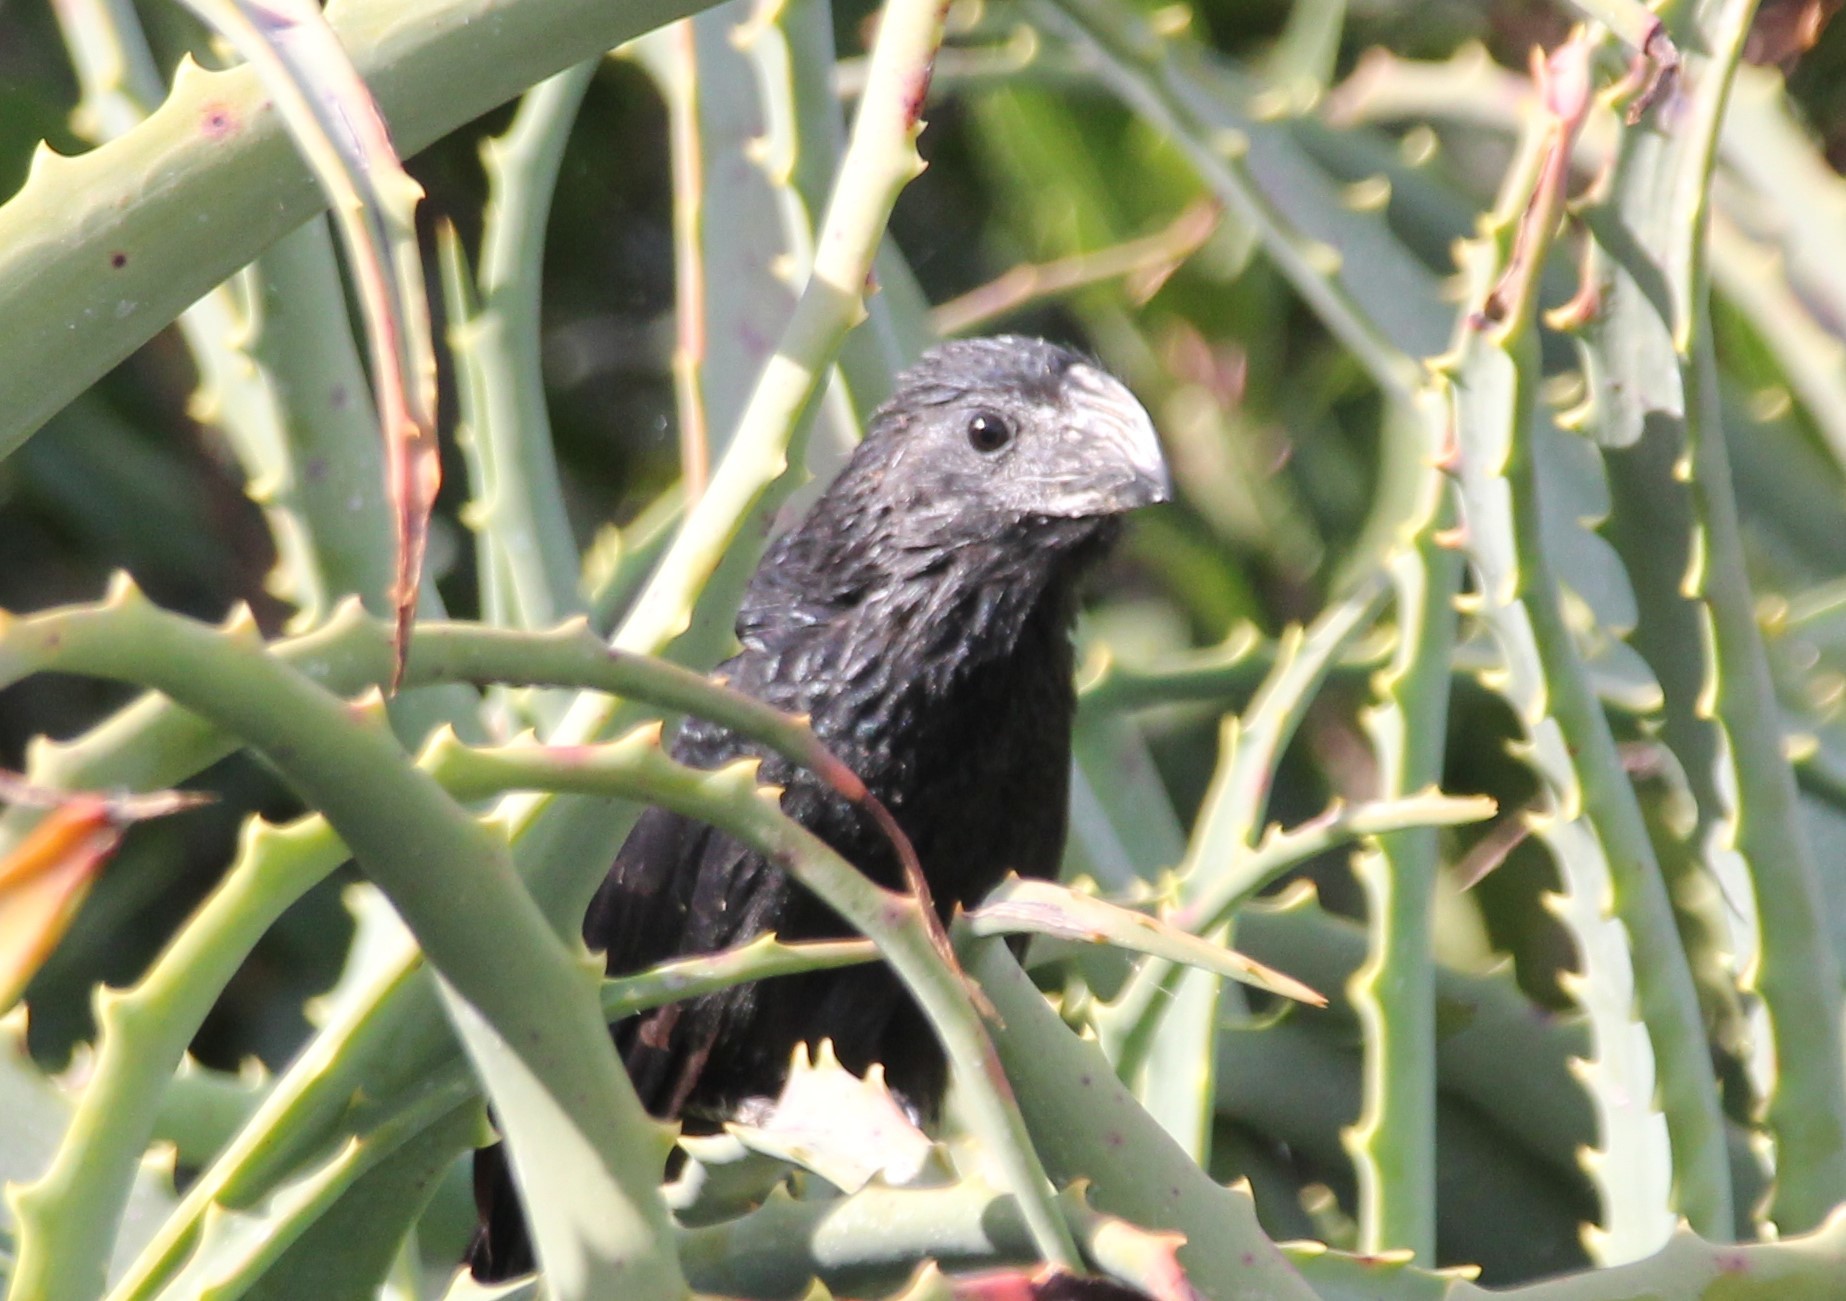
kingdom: Animalia
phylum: Chordata
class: Aves
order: Cuculiformes
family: Cuculidae
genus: Crotophaga
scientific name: Crotophaga sulcirostris
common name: Groove-billed ani
